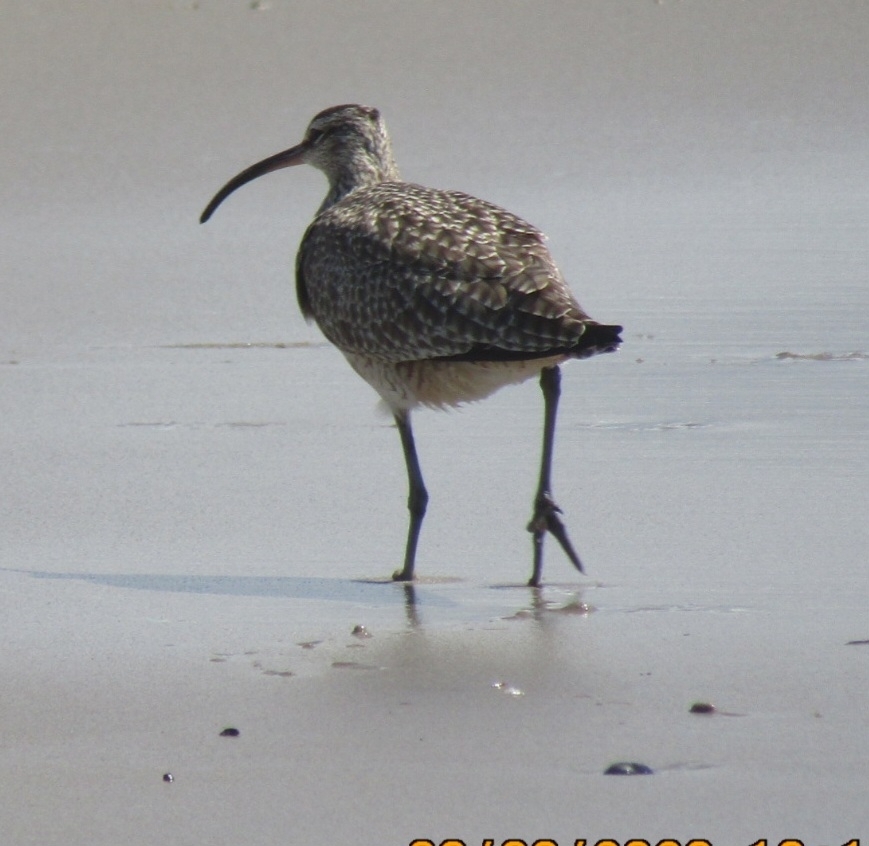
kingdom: Animalia
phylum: Chordata
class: Aves
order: Charadriiformes
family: Scolopacidae
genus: Numenius
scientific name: Numenius phaeopus
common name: Whimbrel
